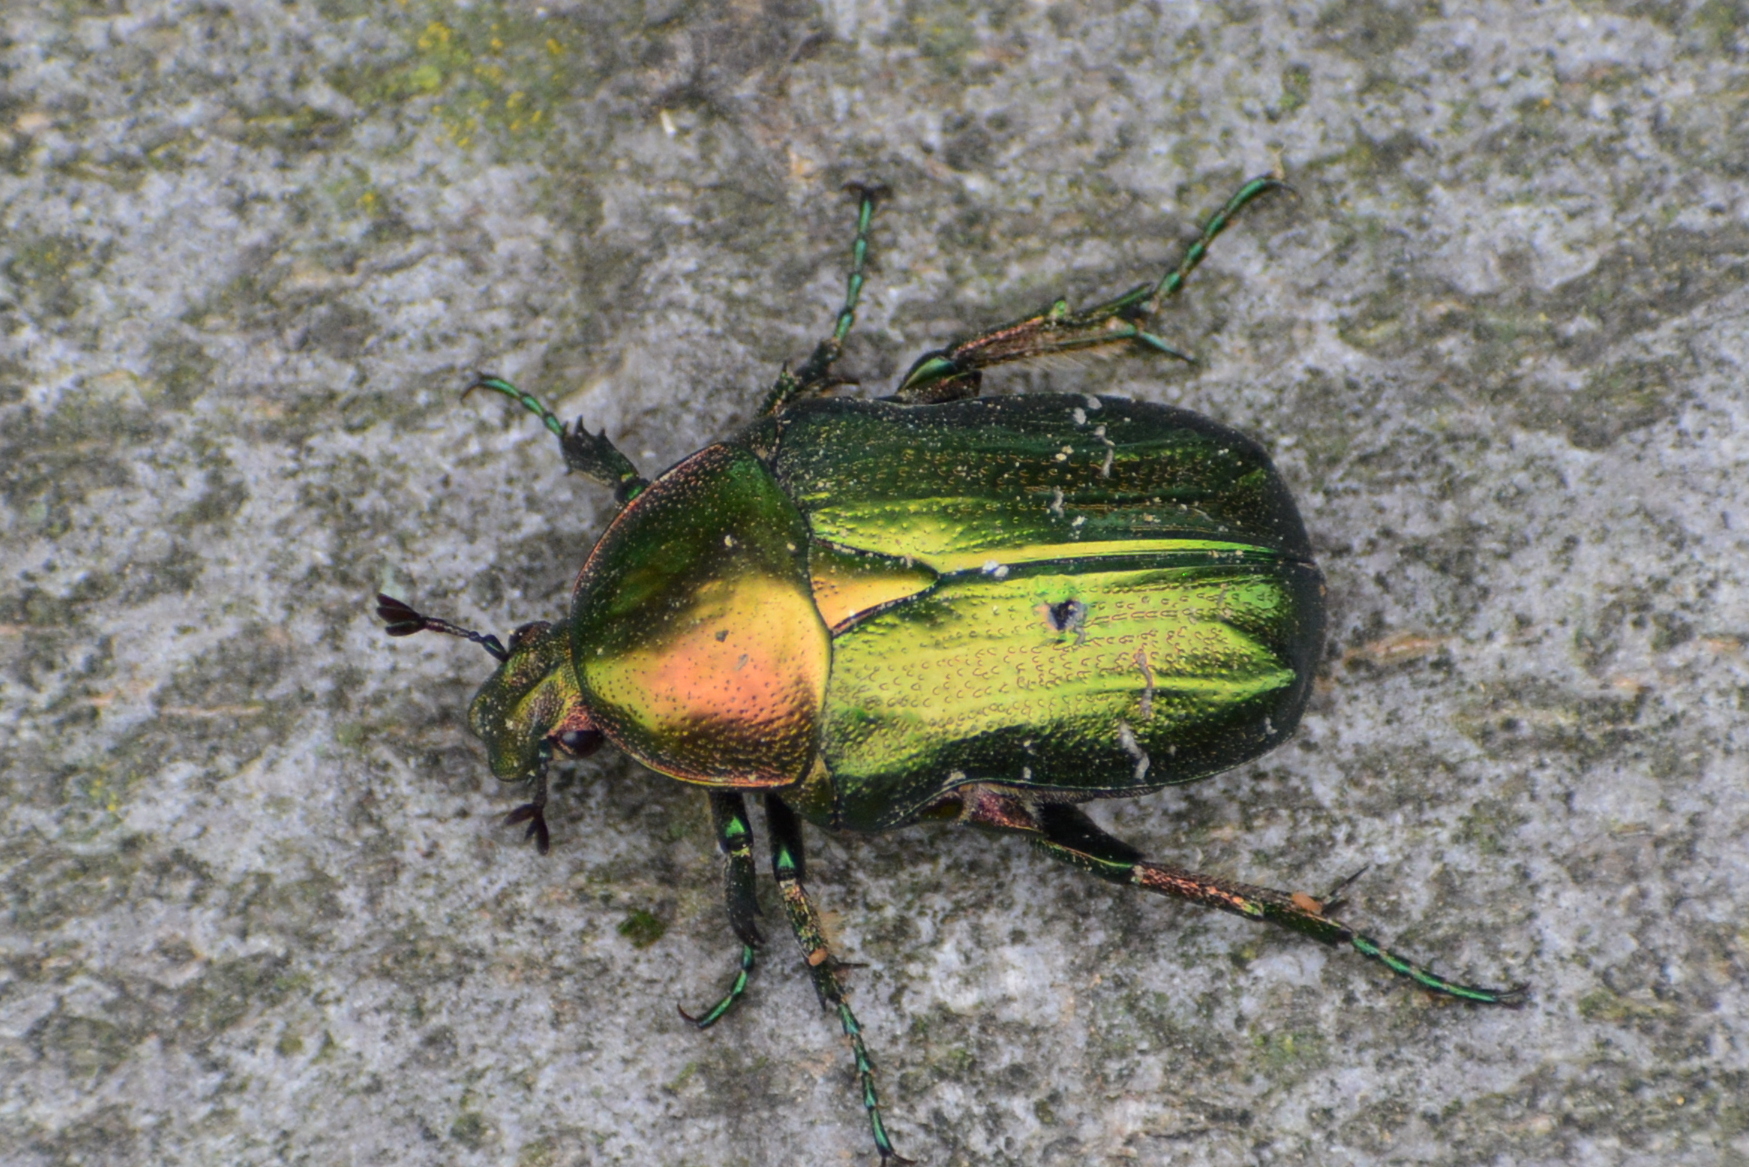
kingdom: Animalia
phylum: Arthropoda
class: Insecta
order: Coleoptera
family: Scarabaeidae
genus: Cetonia
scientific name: Cetonia aurata
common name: Rose chafer
